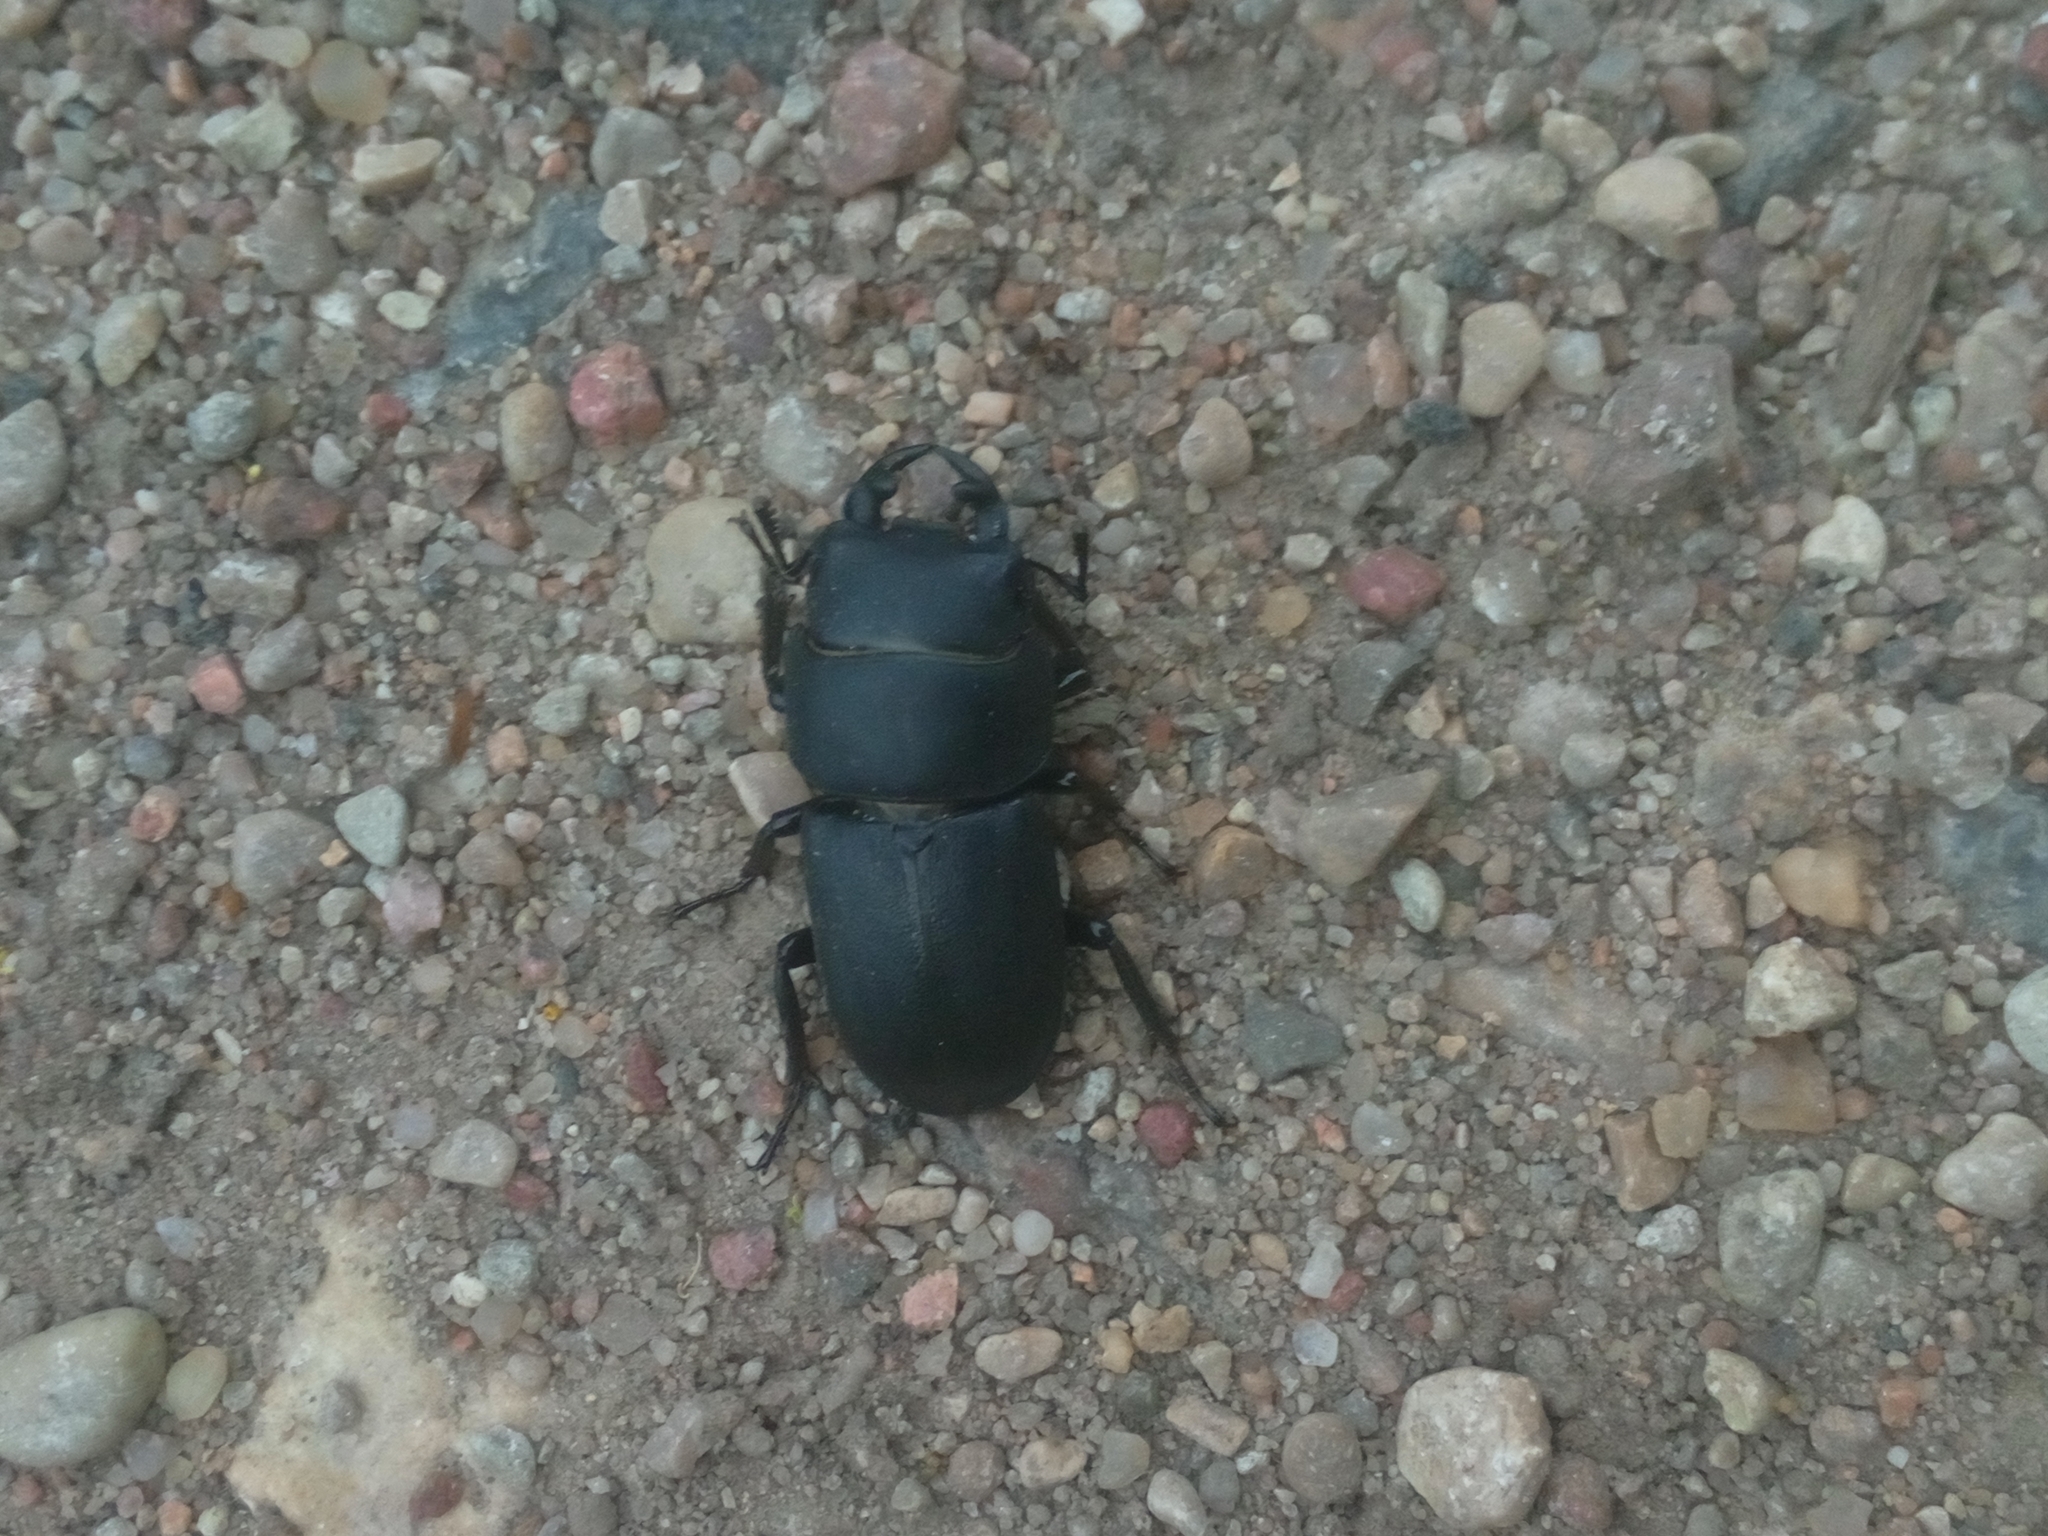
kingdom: Animalia
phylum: Arthropoda
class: Insecta
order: Coleoptera
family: Lucanidae
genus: Dorcus
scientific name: Dorcus parallelipipedus
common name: Lesser stag beetle
